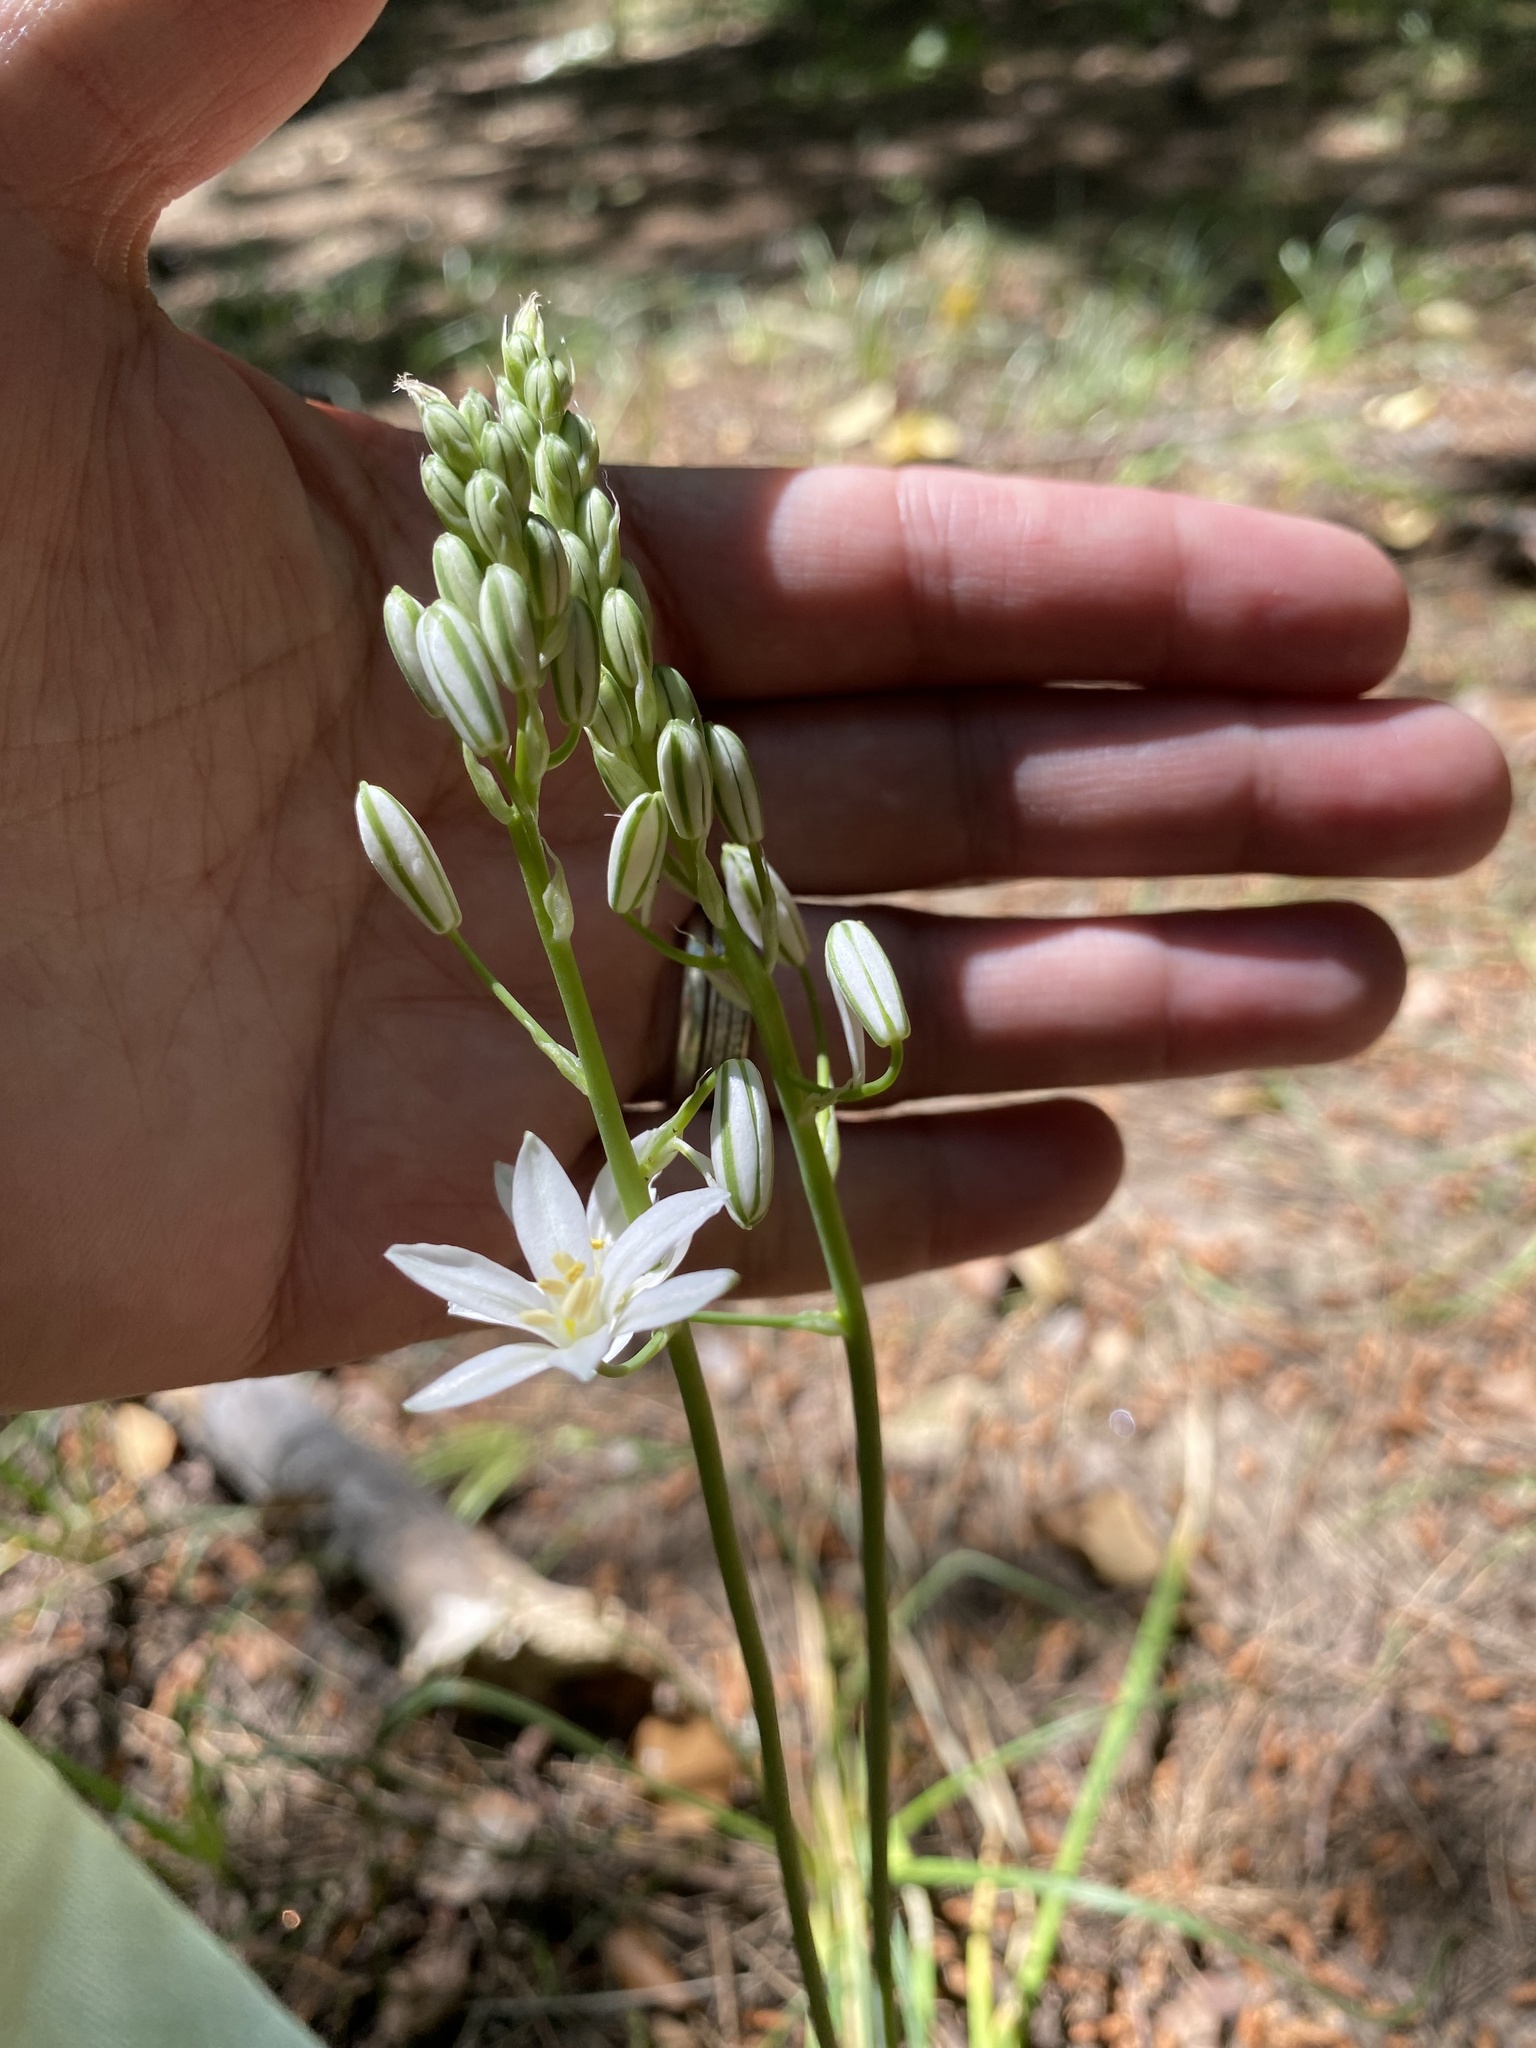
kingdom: Plantae
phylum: Tracheophyta
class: Liliopsida
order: Asparagales
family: Asparagaceae
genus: Ornithogalum
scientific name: Ornithogalum ponticum
